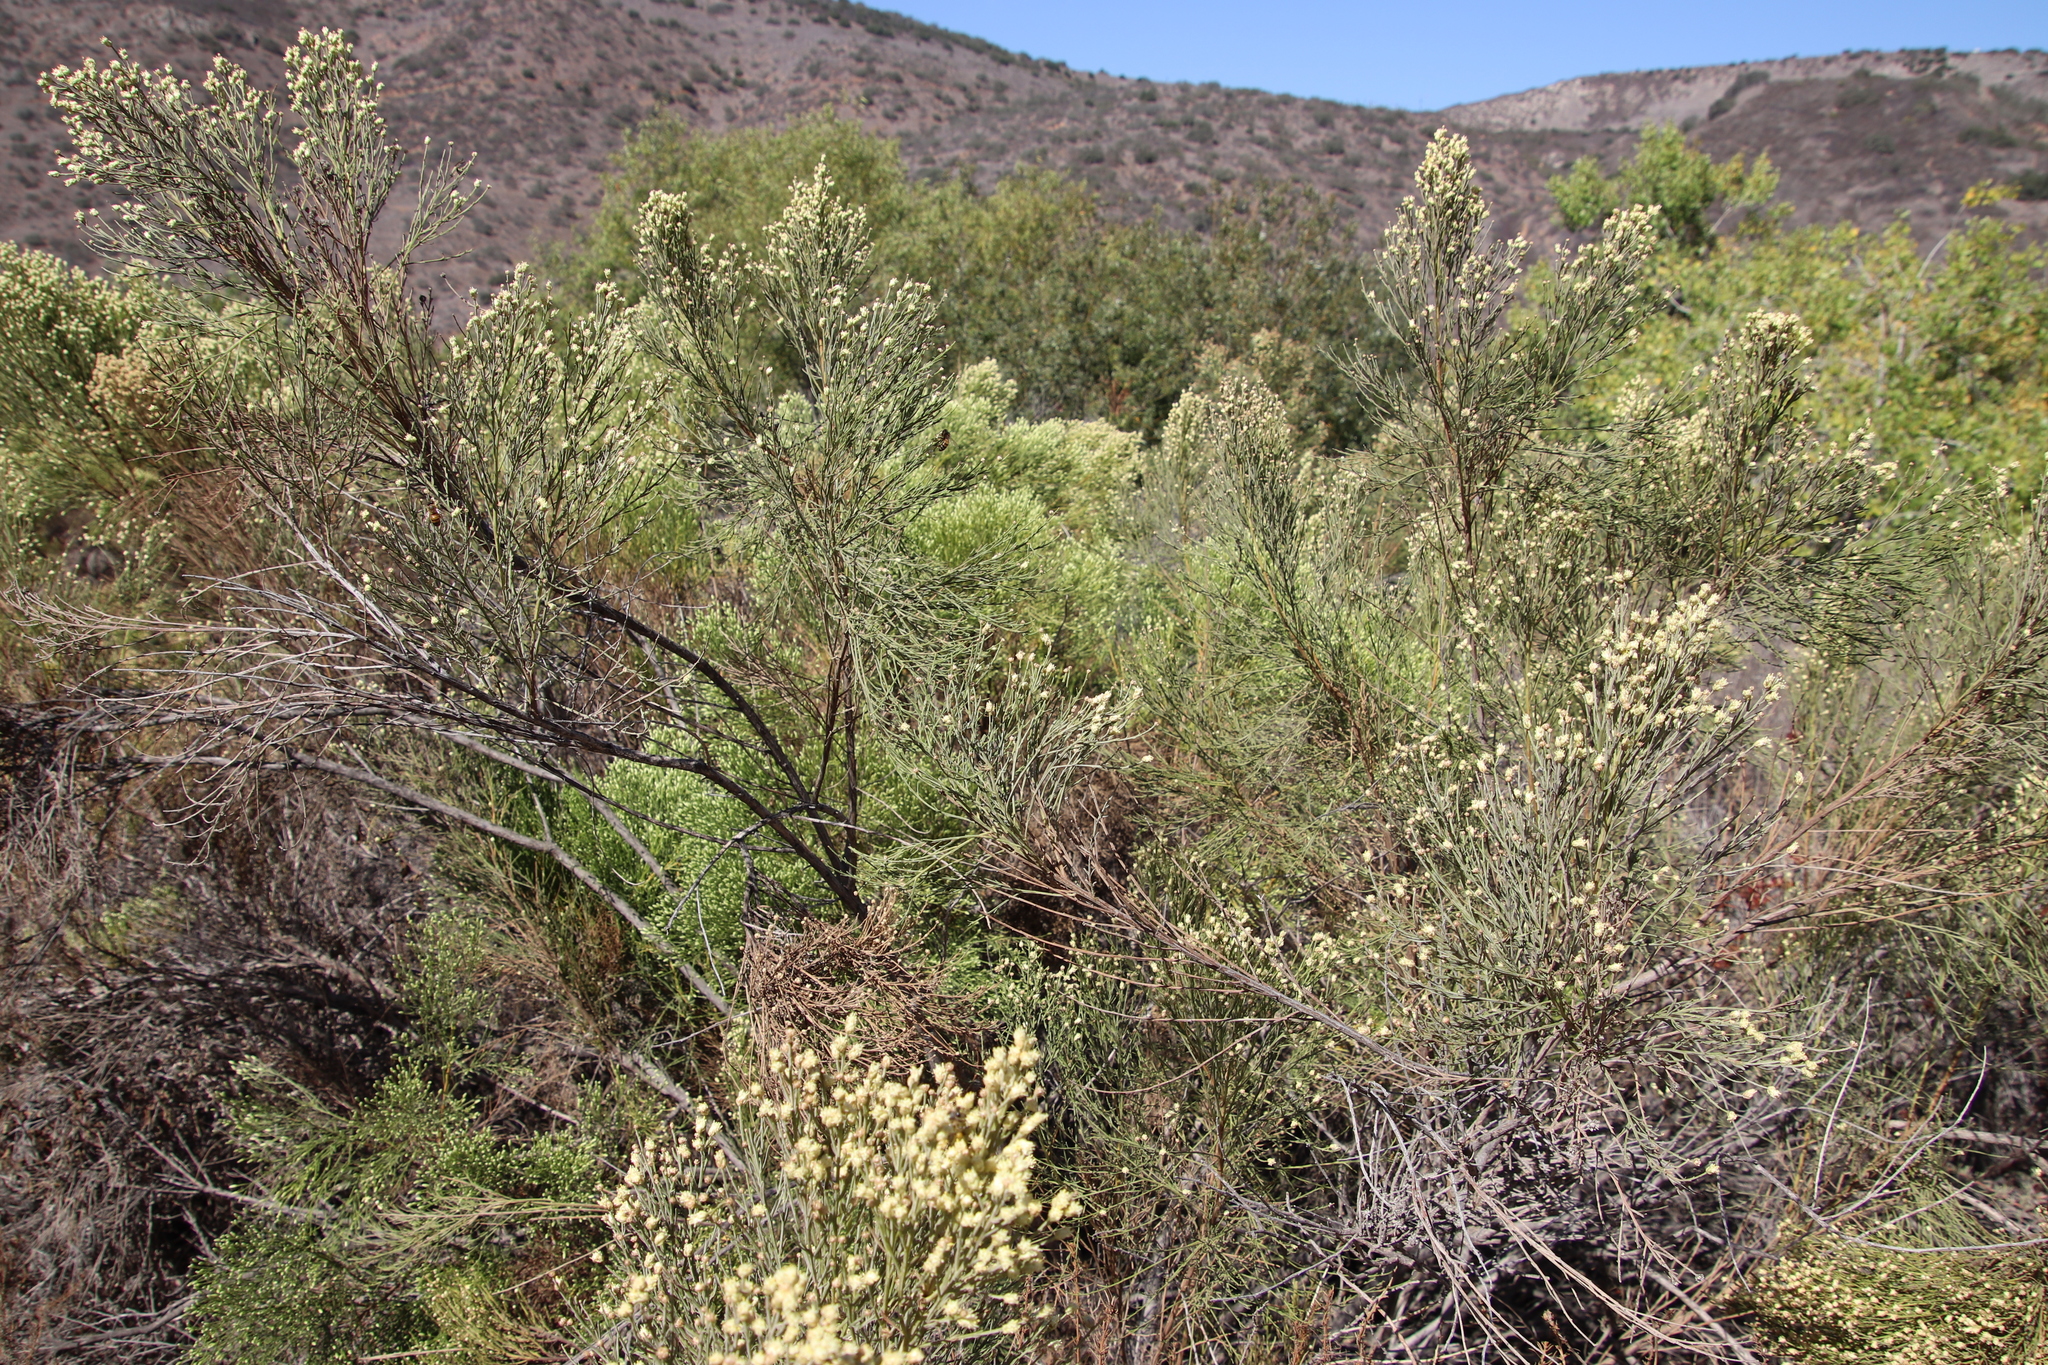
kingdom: Plantae
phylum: Tracheophyta
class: Magnoliopsida
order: Asterales
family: Asteraceae
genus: Baccharis
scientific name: Baccharis sarothroides
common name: Desert-broom
